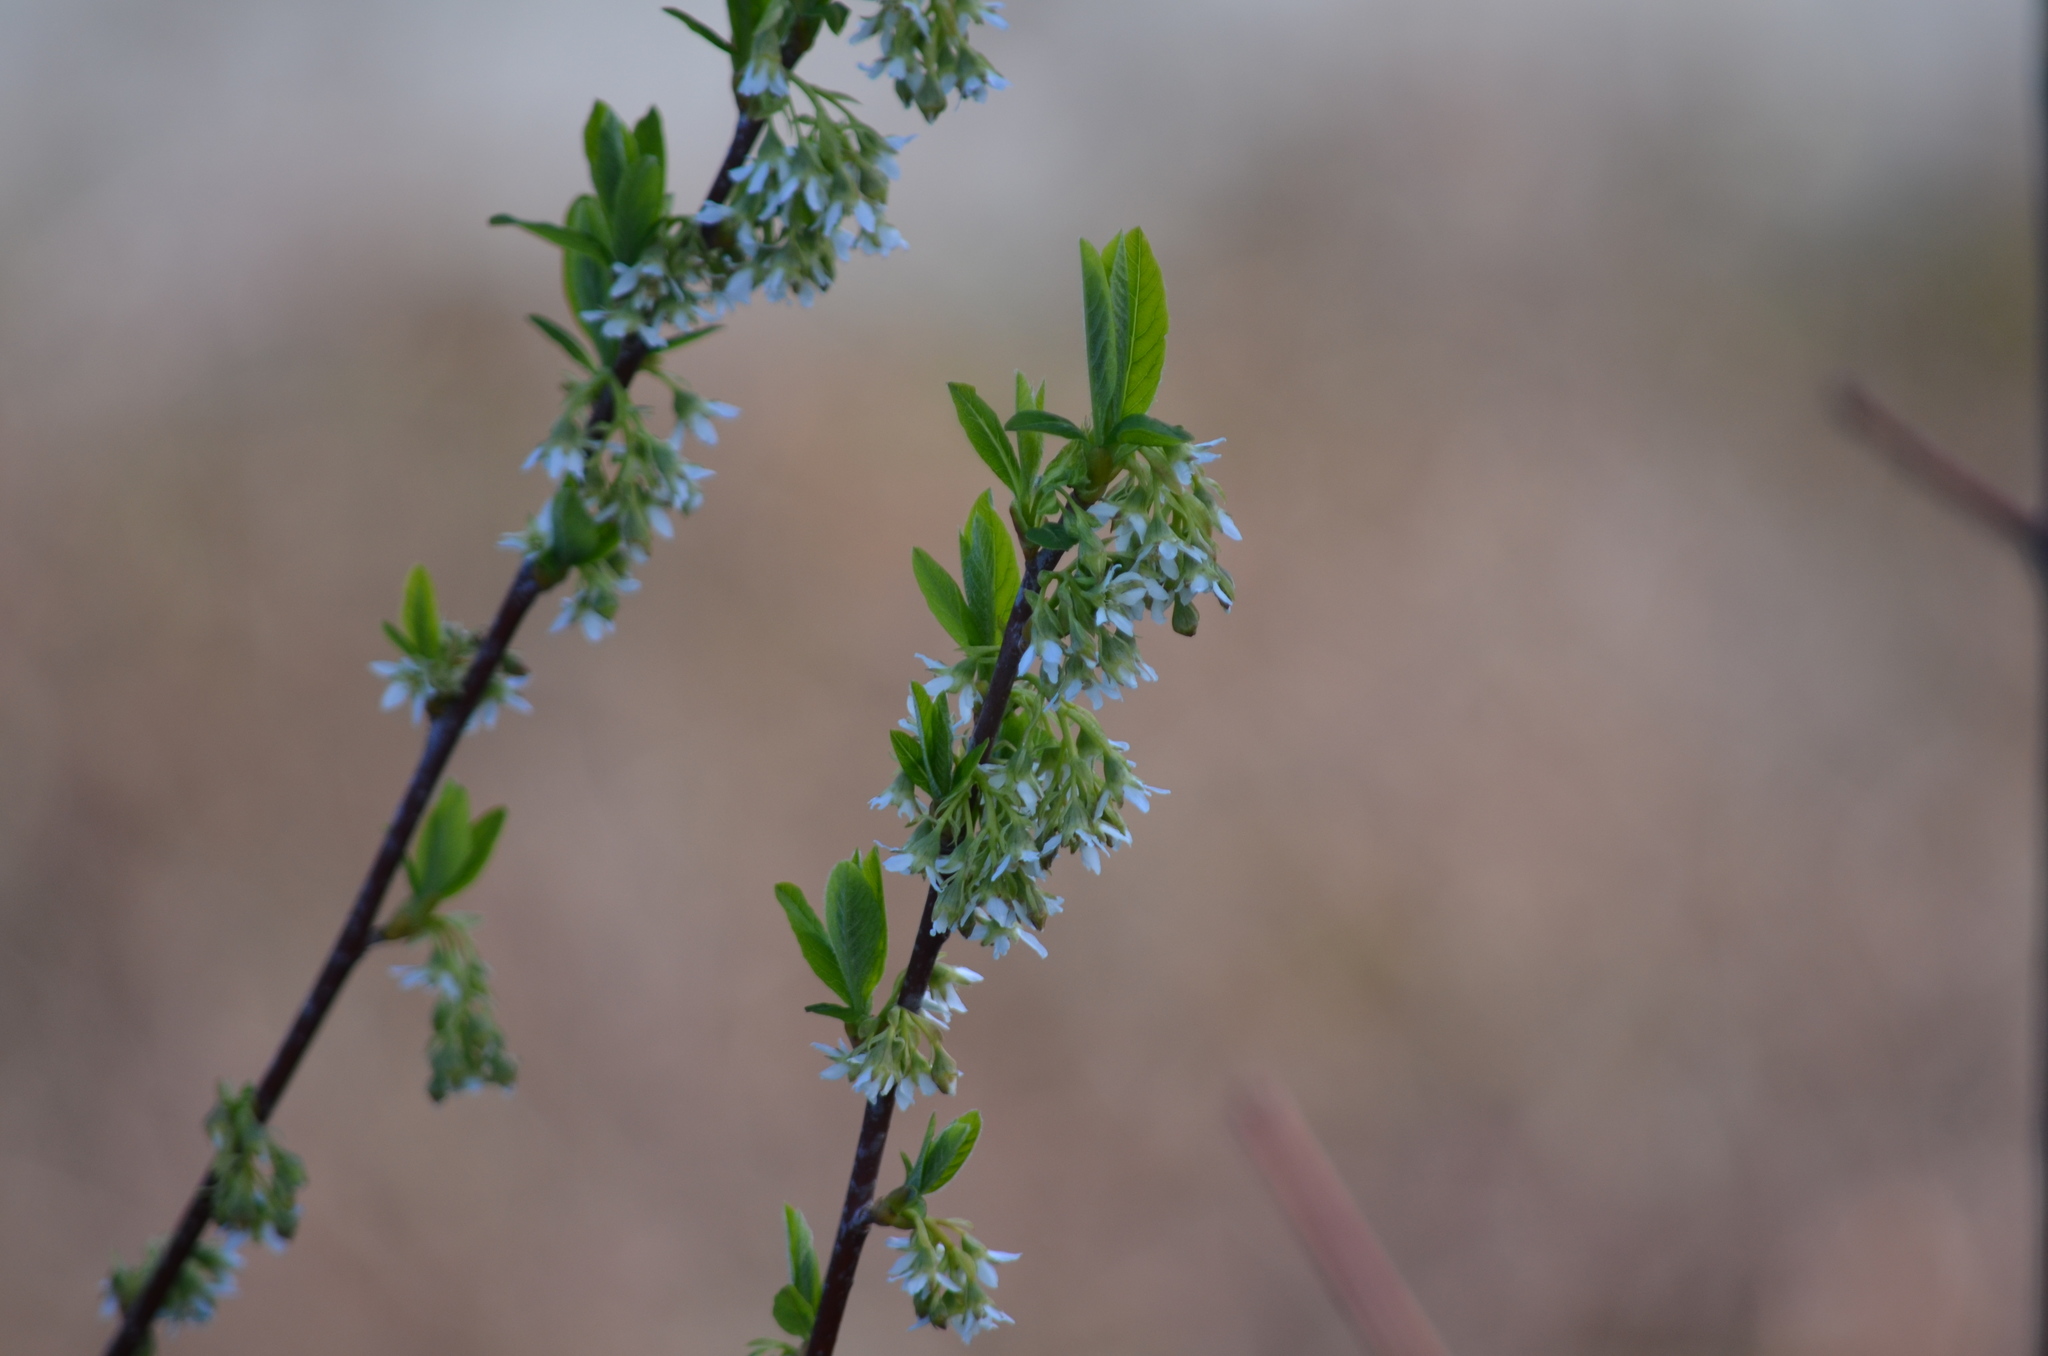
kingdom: Plantae
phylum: Tracheophyta
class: Magnoliopsida
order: Rosales
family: Rosaceae
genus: Oemleria
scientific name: Oemleria cerasiformis
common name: Osoberry
